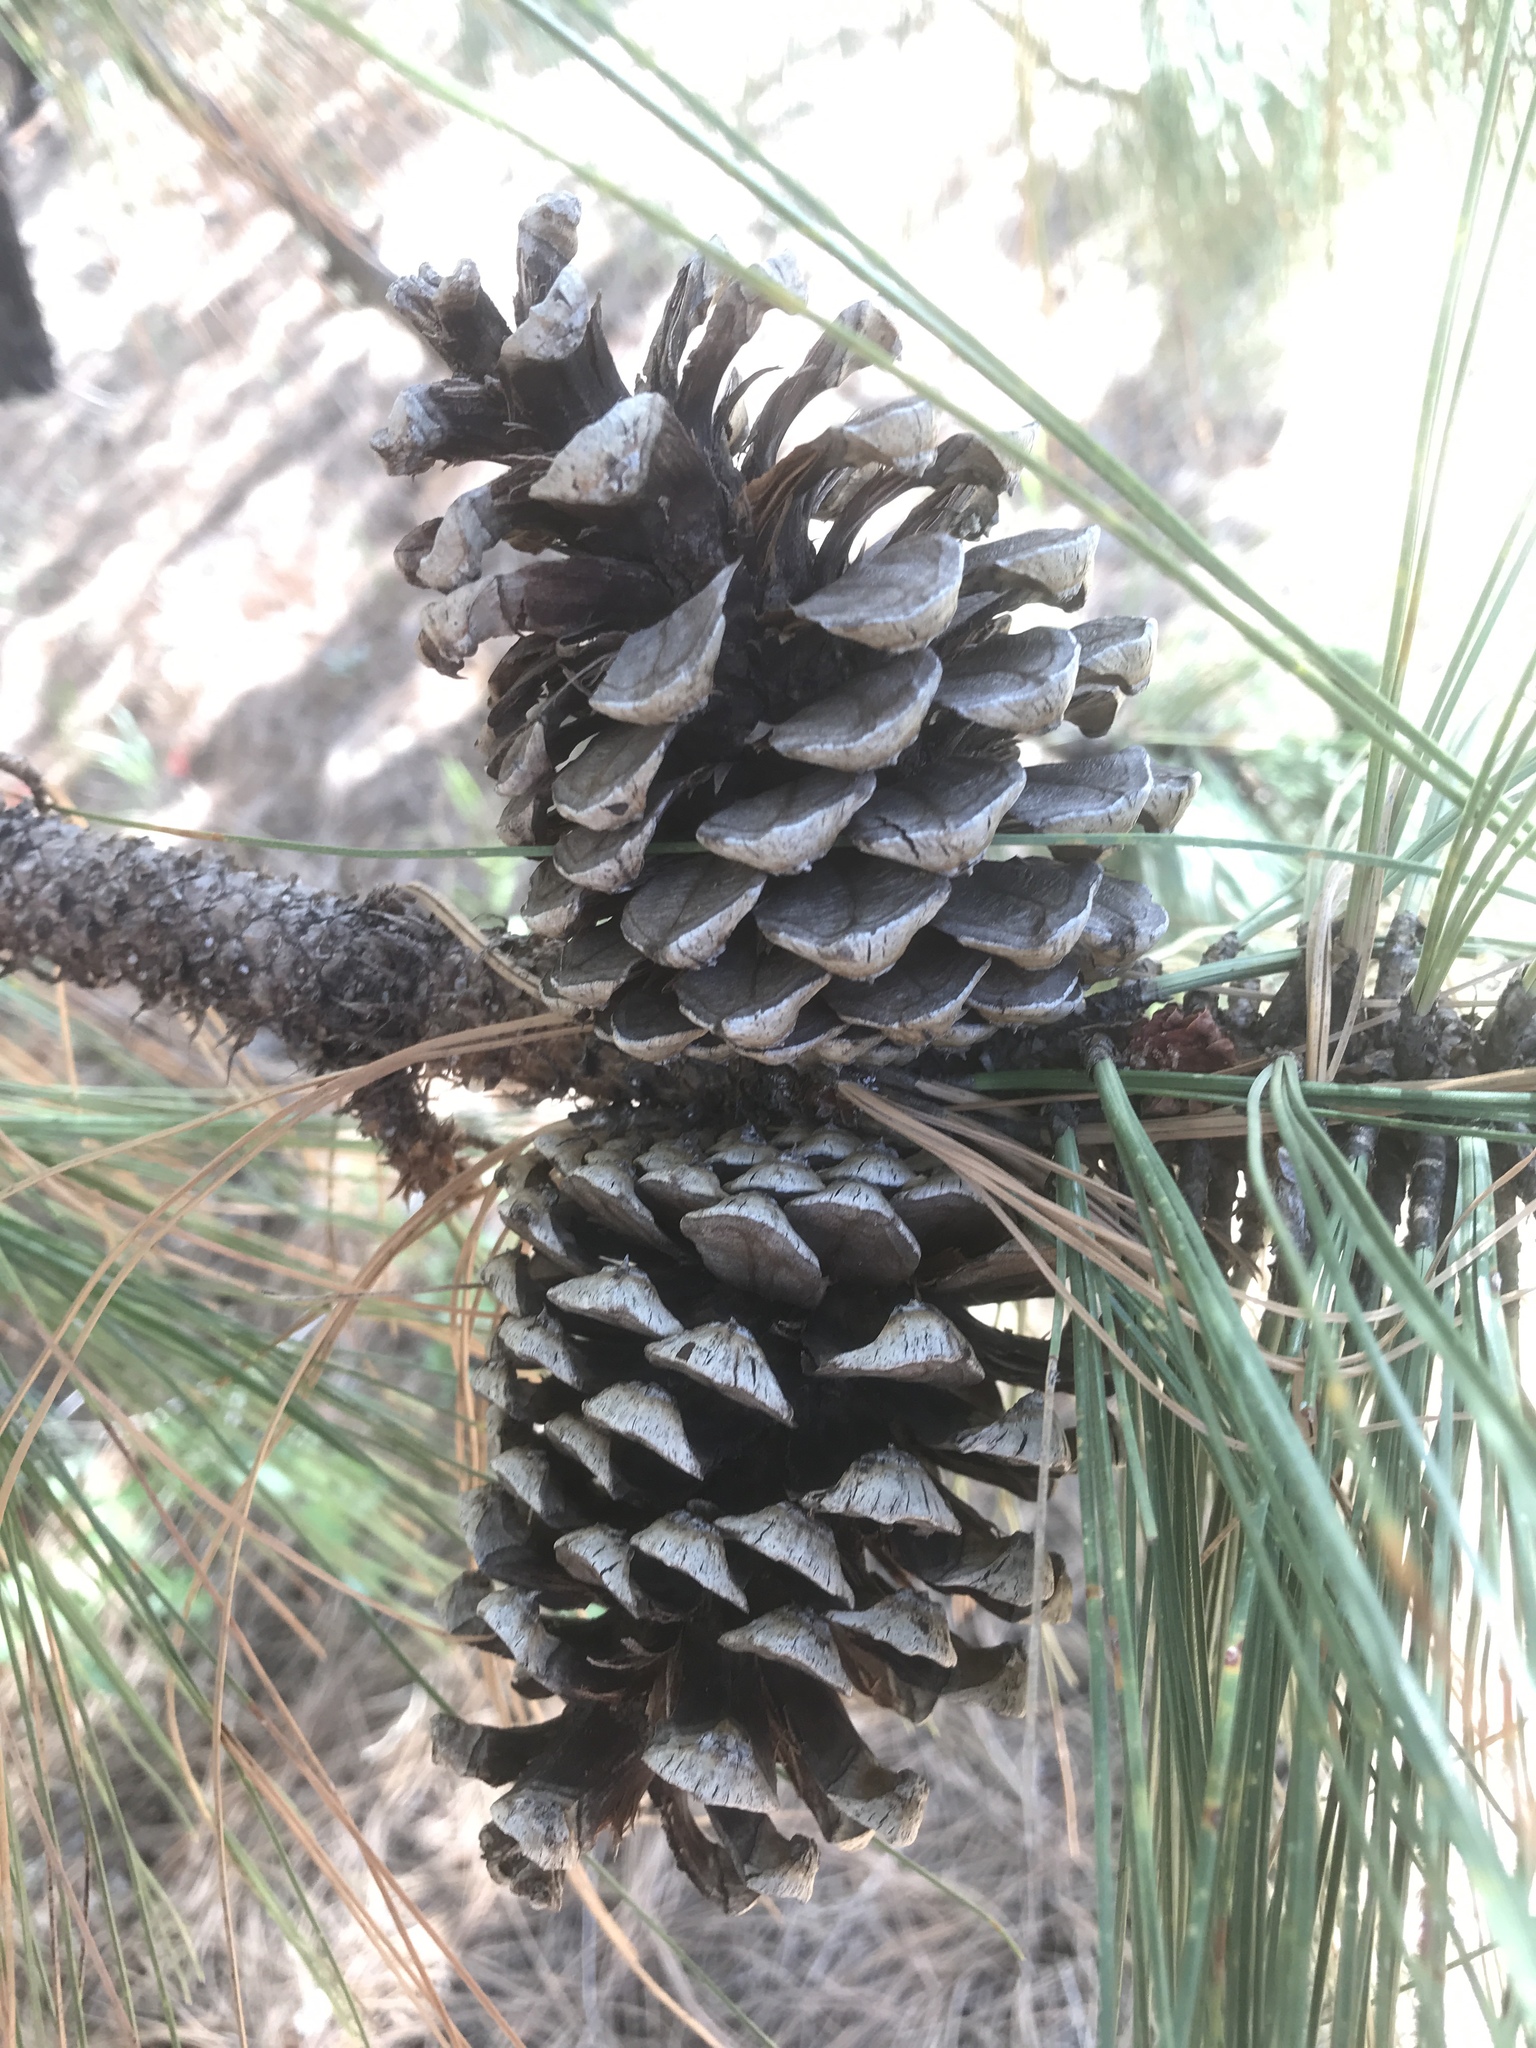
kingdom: Plantae
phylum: Tracheophyta
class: Pinopsida
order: Pinales
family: Pinaceae
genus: Pinus
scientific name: Pinus arizonica
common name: Arizona pine
